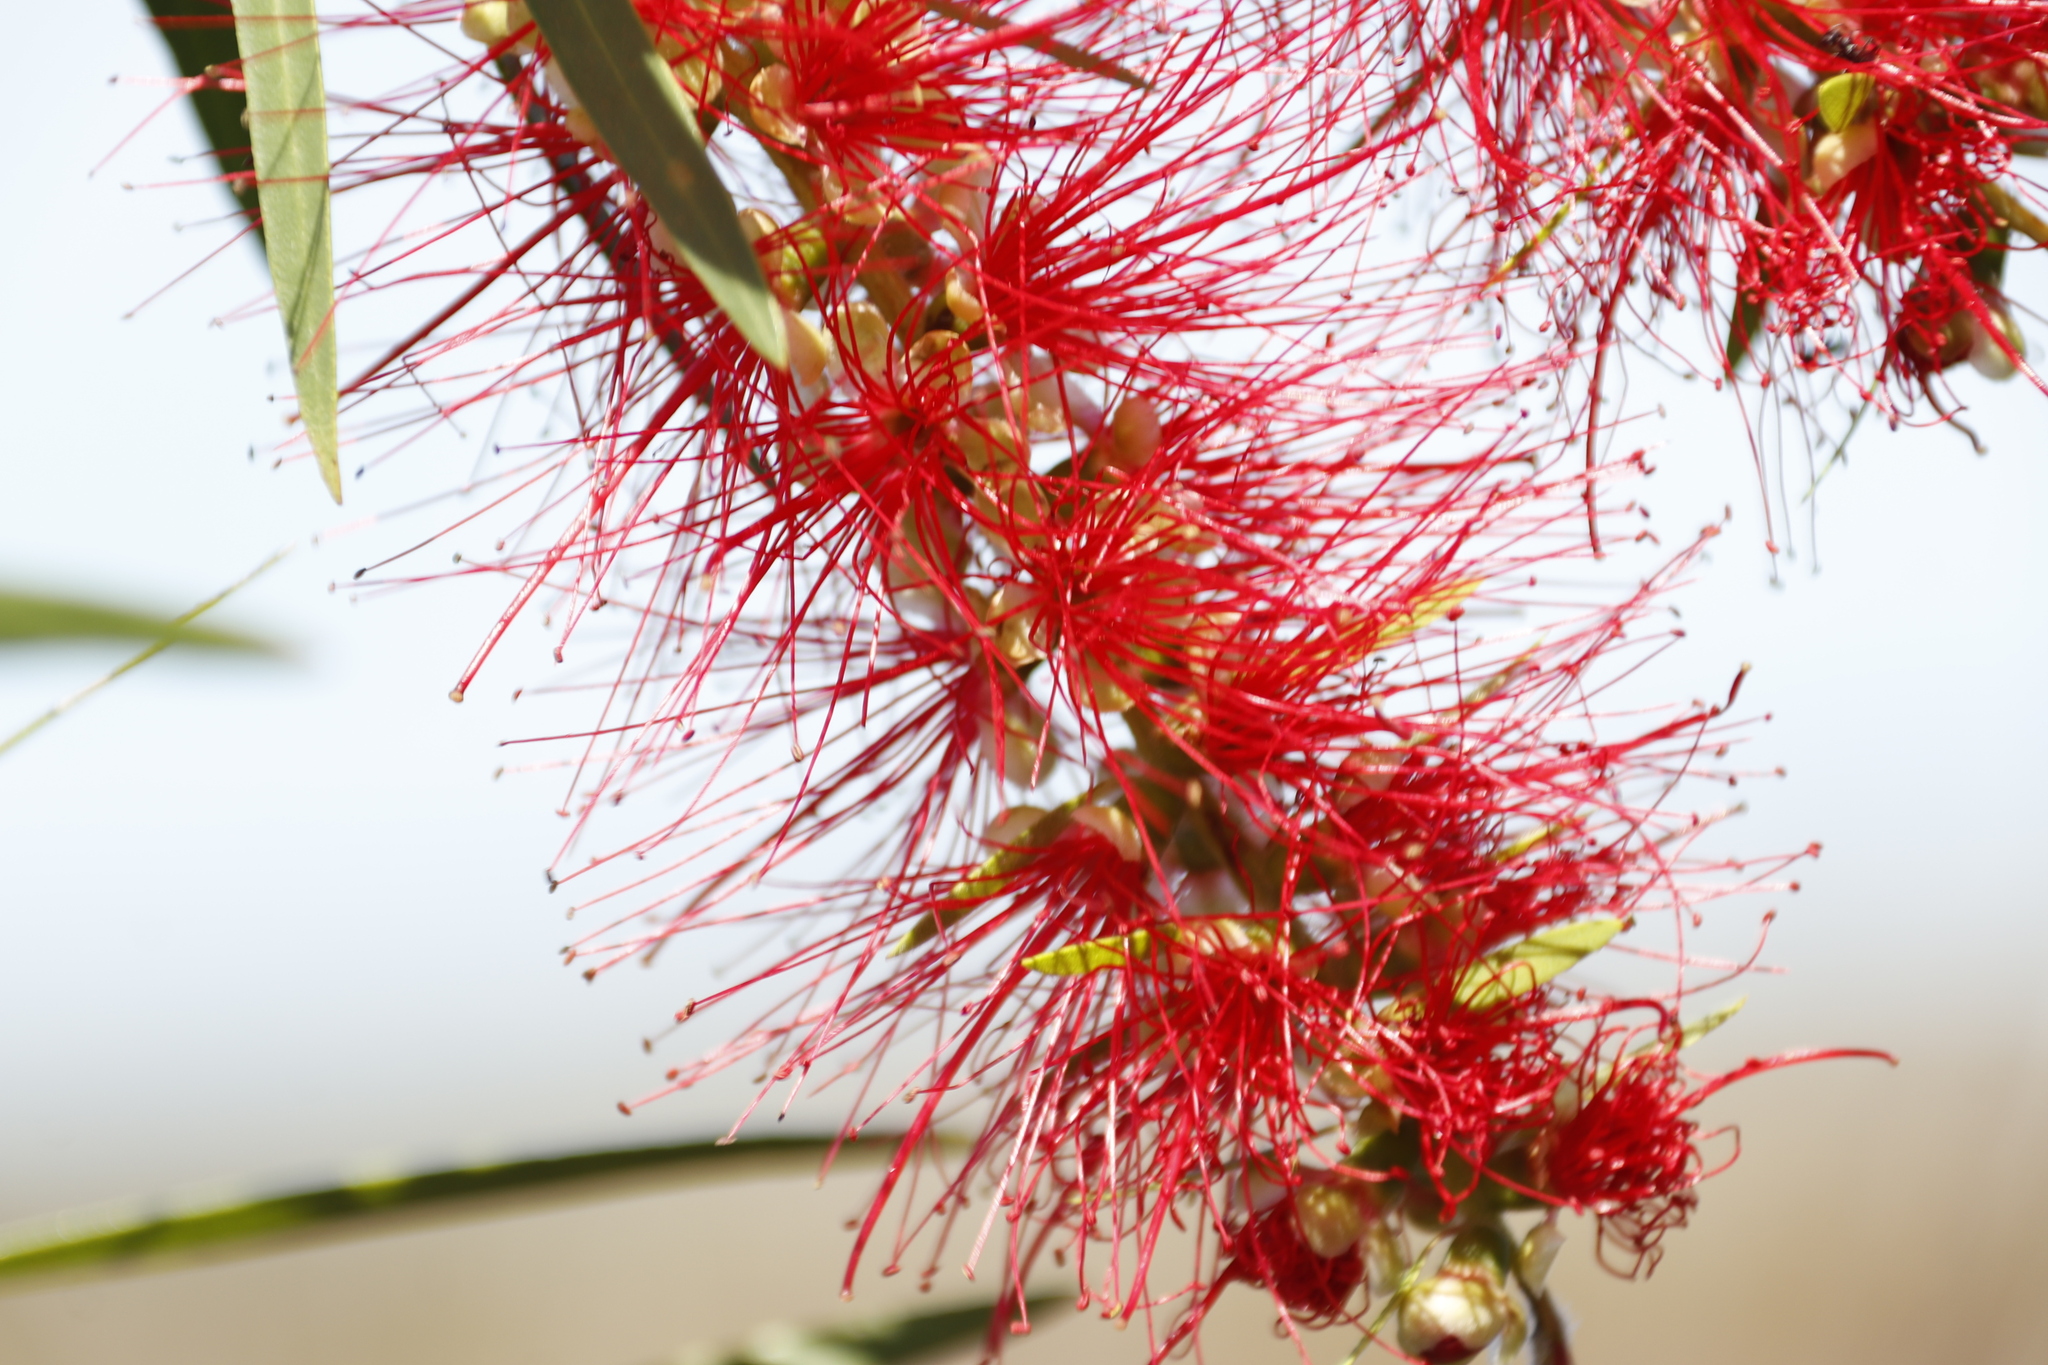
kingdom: Plantae
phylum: Tracheophyta
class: Magnoliopsida
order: Myrtales
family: Myrtaceae
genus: Callistemon
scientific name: Callistemon viminalis
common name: Drooping bottlebrush
